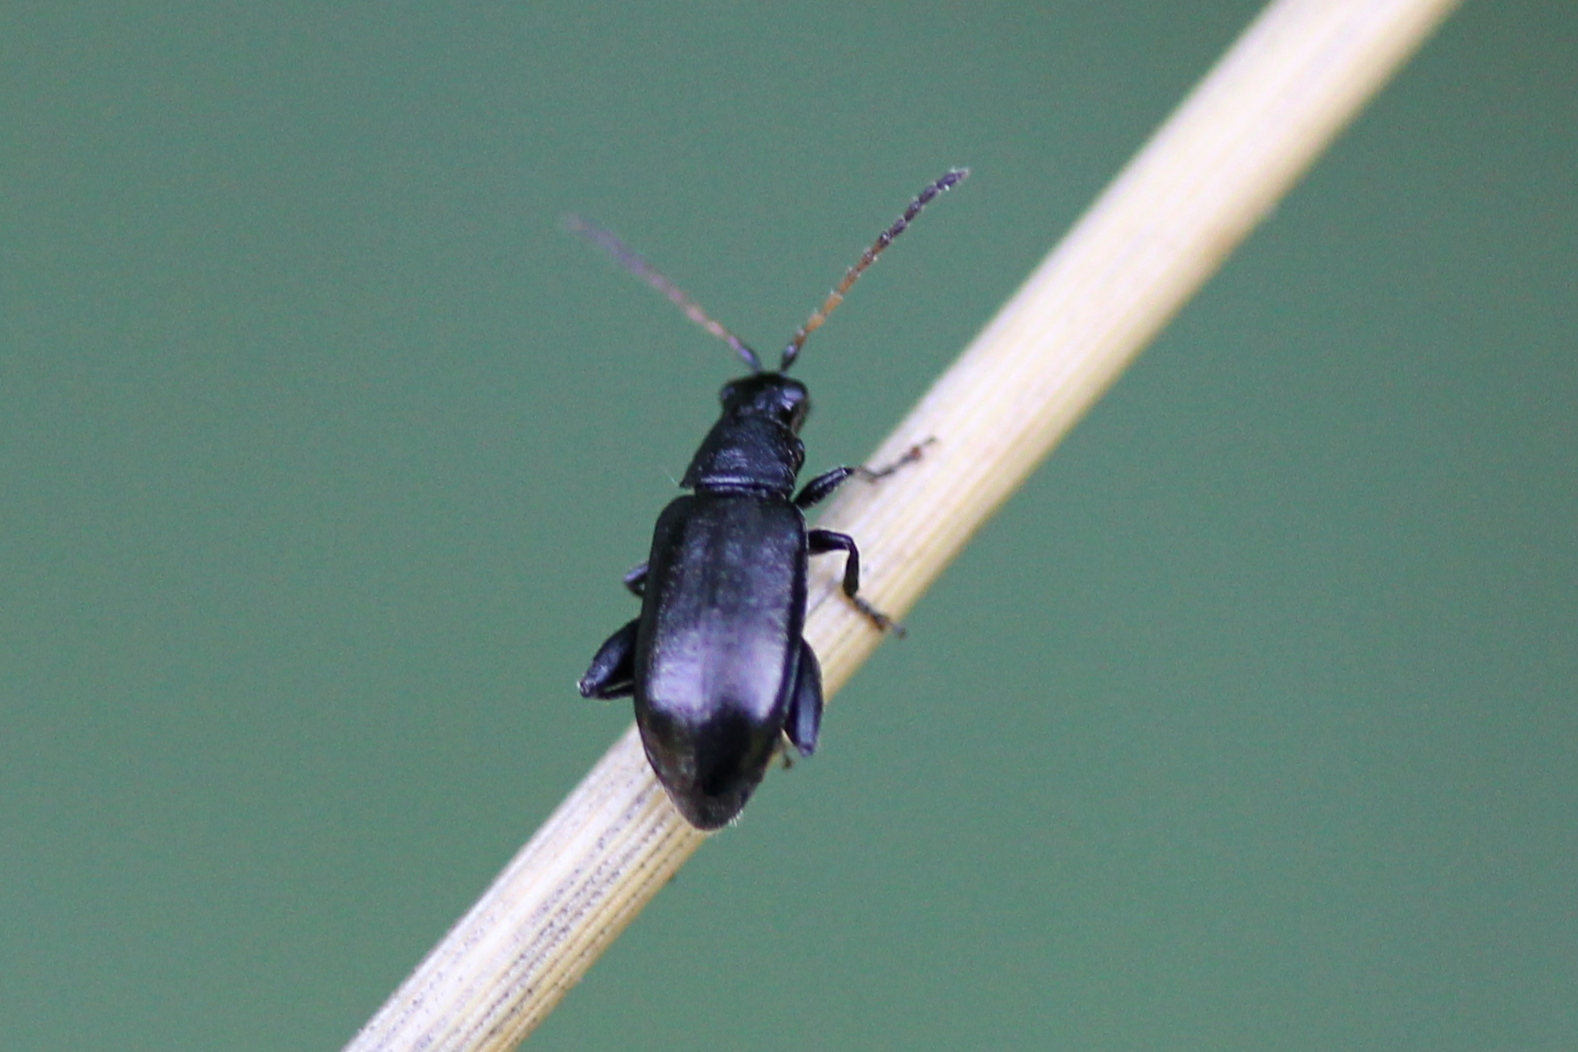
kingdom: Animalia
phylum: Arthropoda
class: Insecta
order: Coleoptera
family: Chrysomelidae
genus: Systena
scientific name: Systena hudsonias
